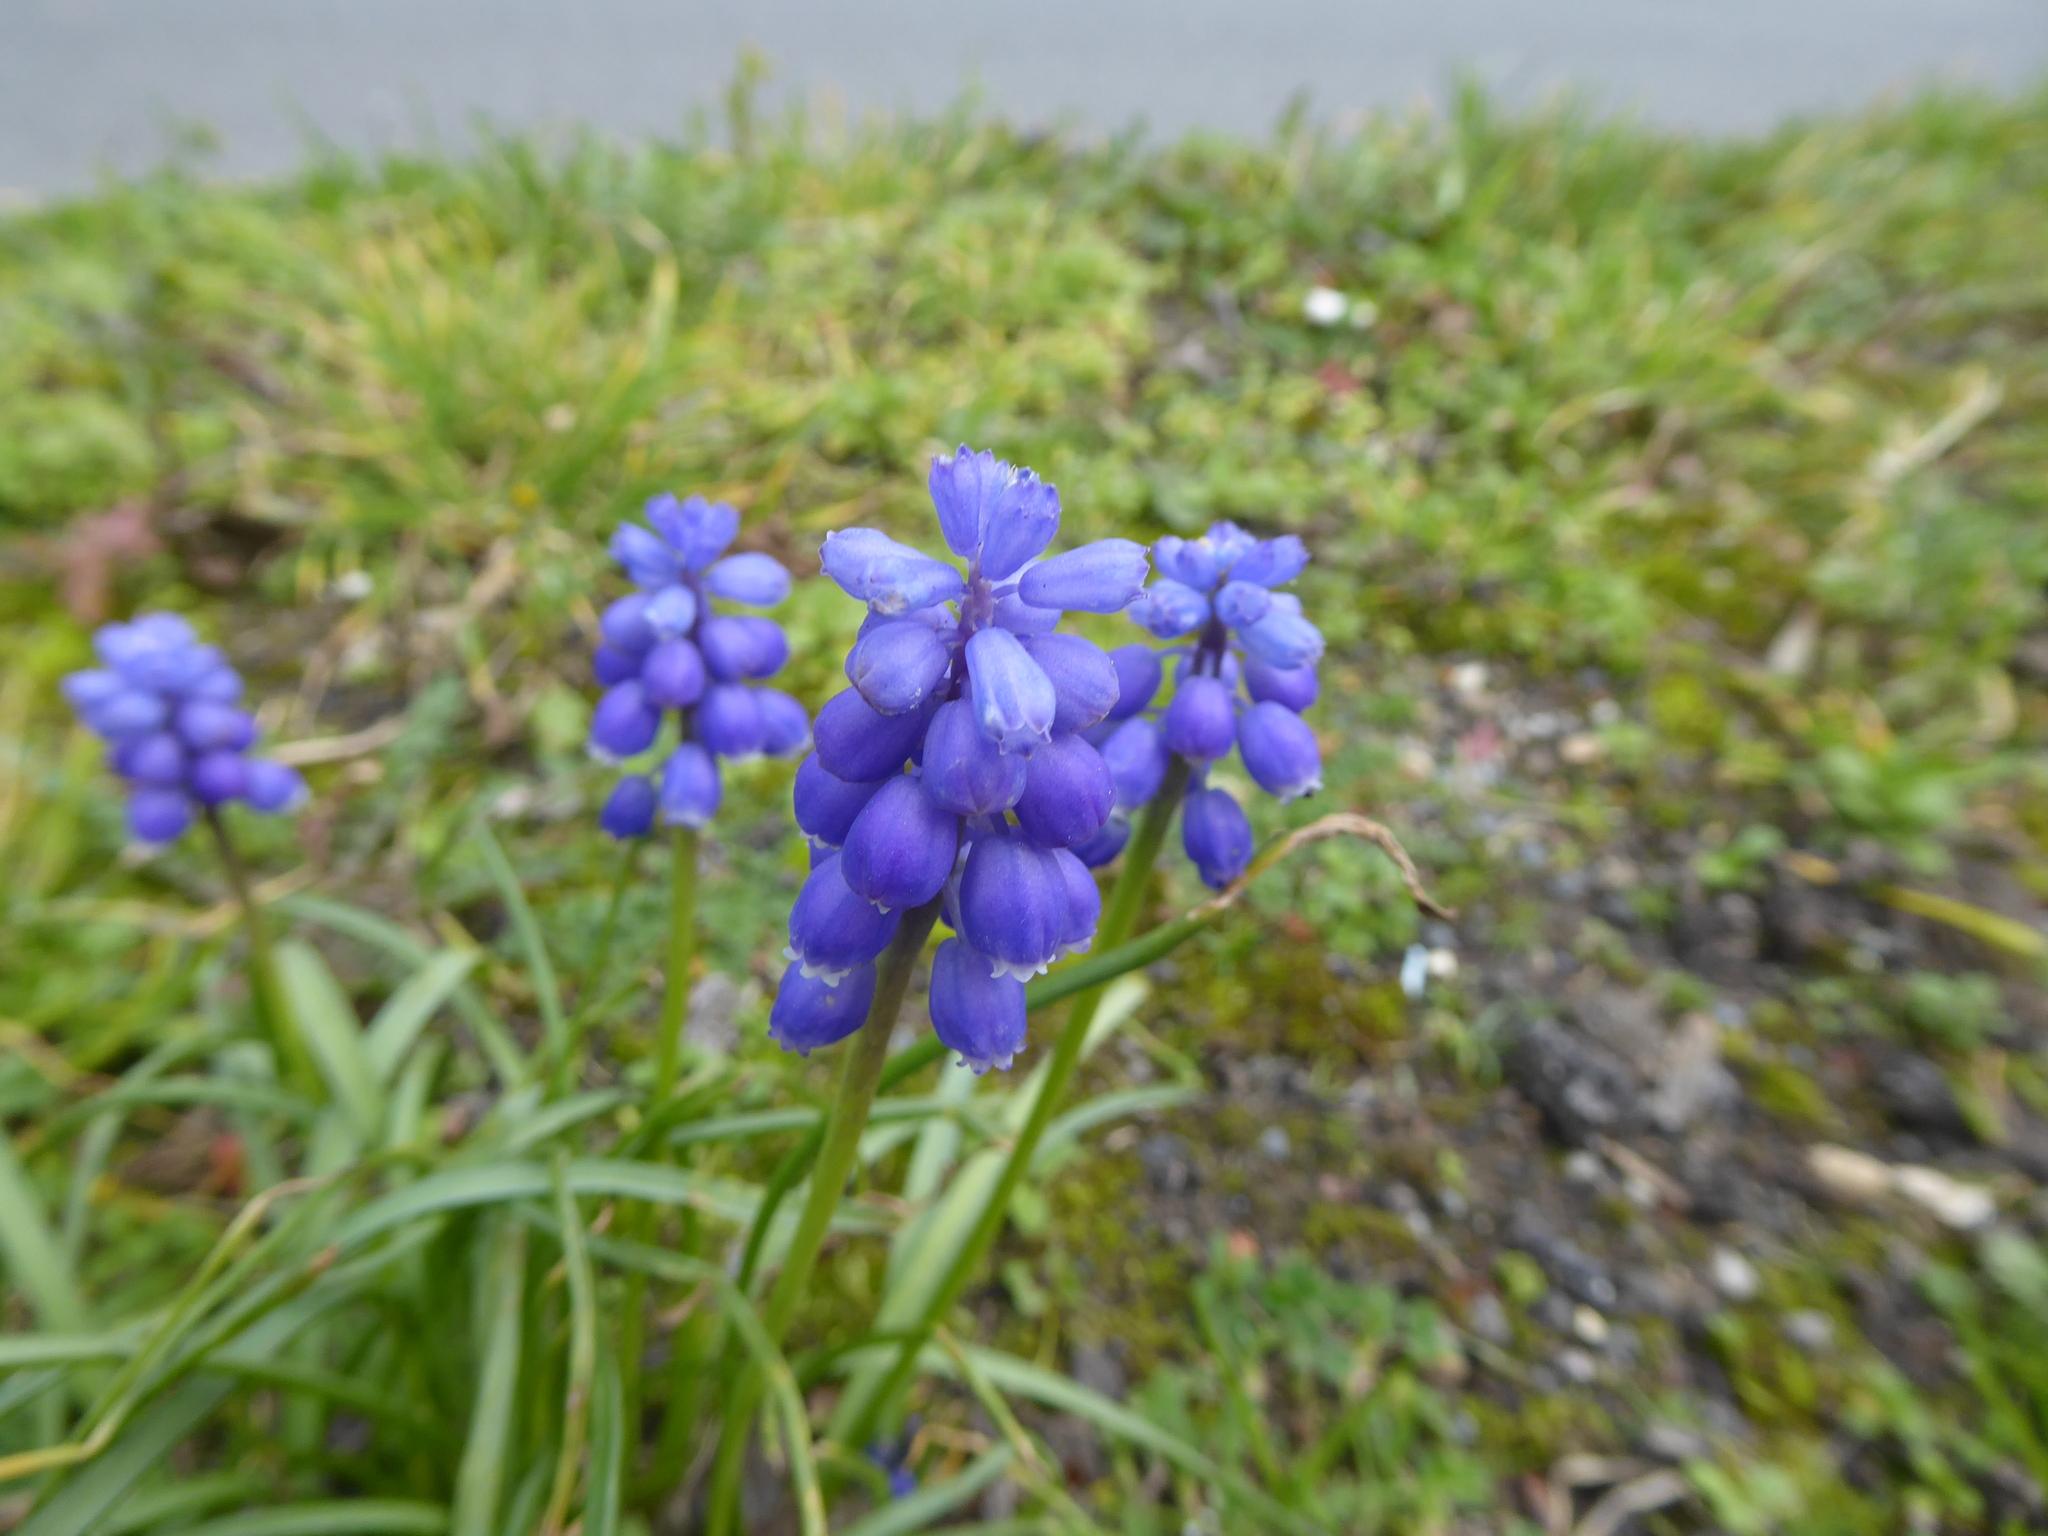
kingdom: Plantae
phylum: Tracheophyta
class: Liliopsida
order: Asparagales
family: Asparagaceae
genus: Muscari
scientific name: Muscari armeniacum
